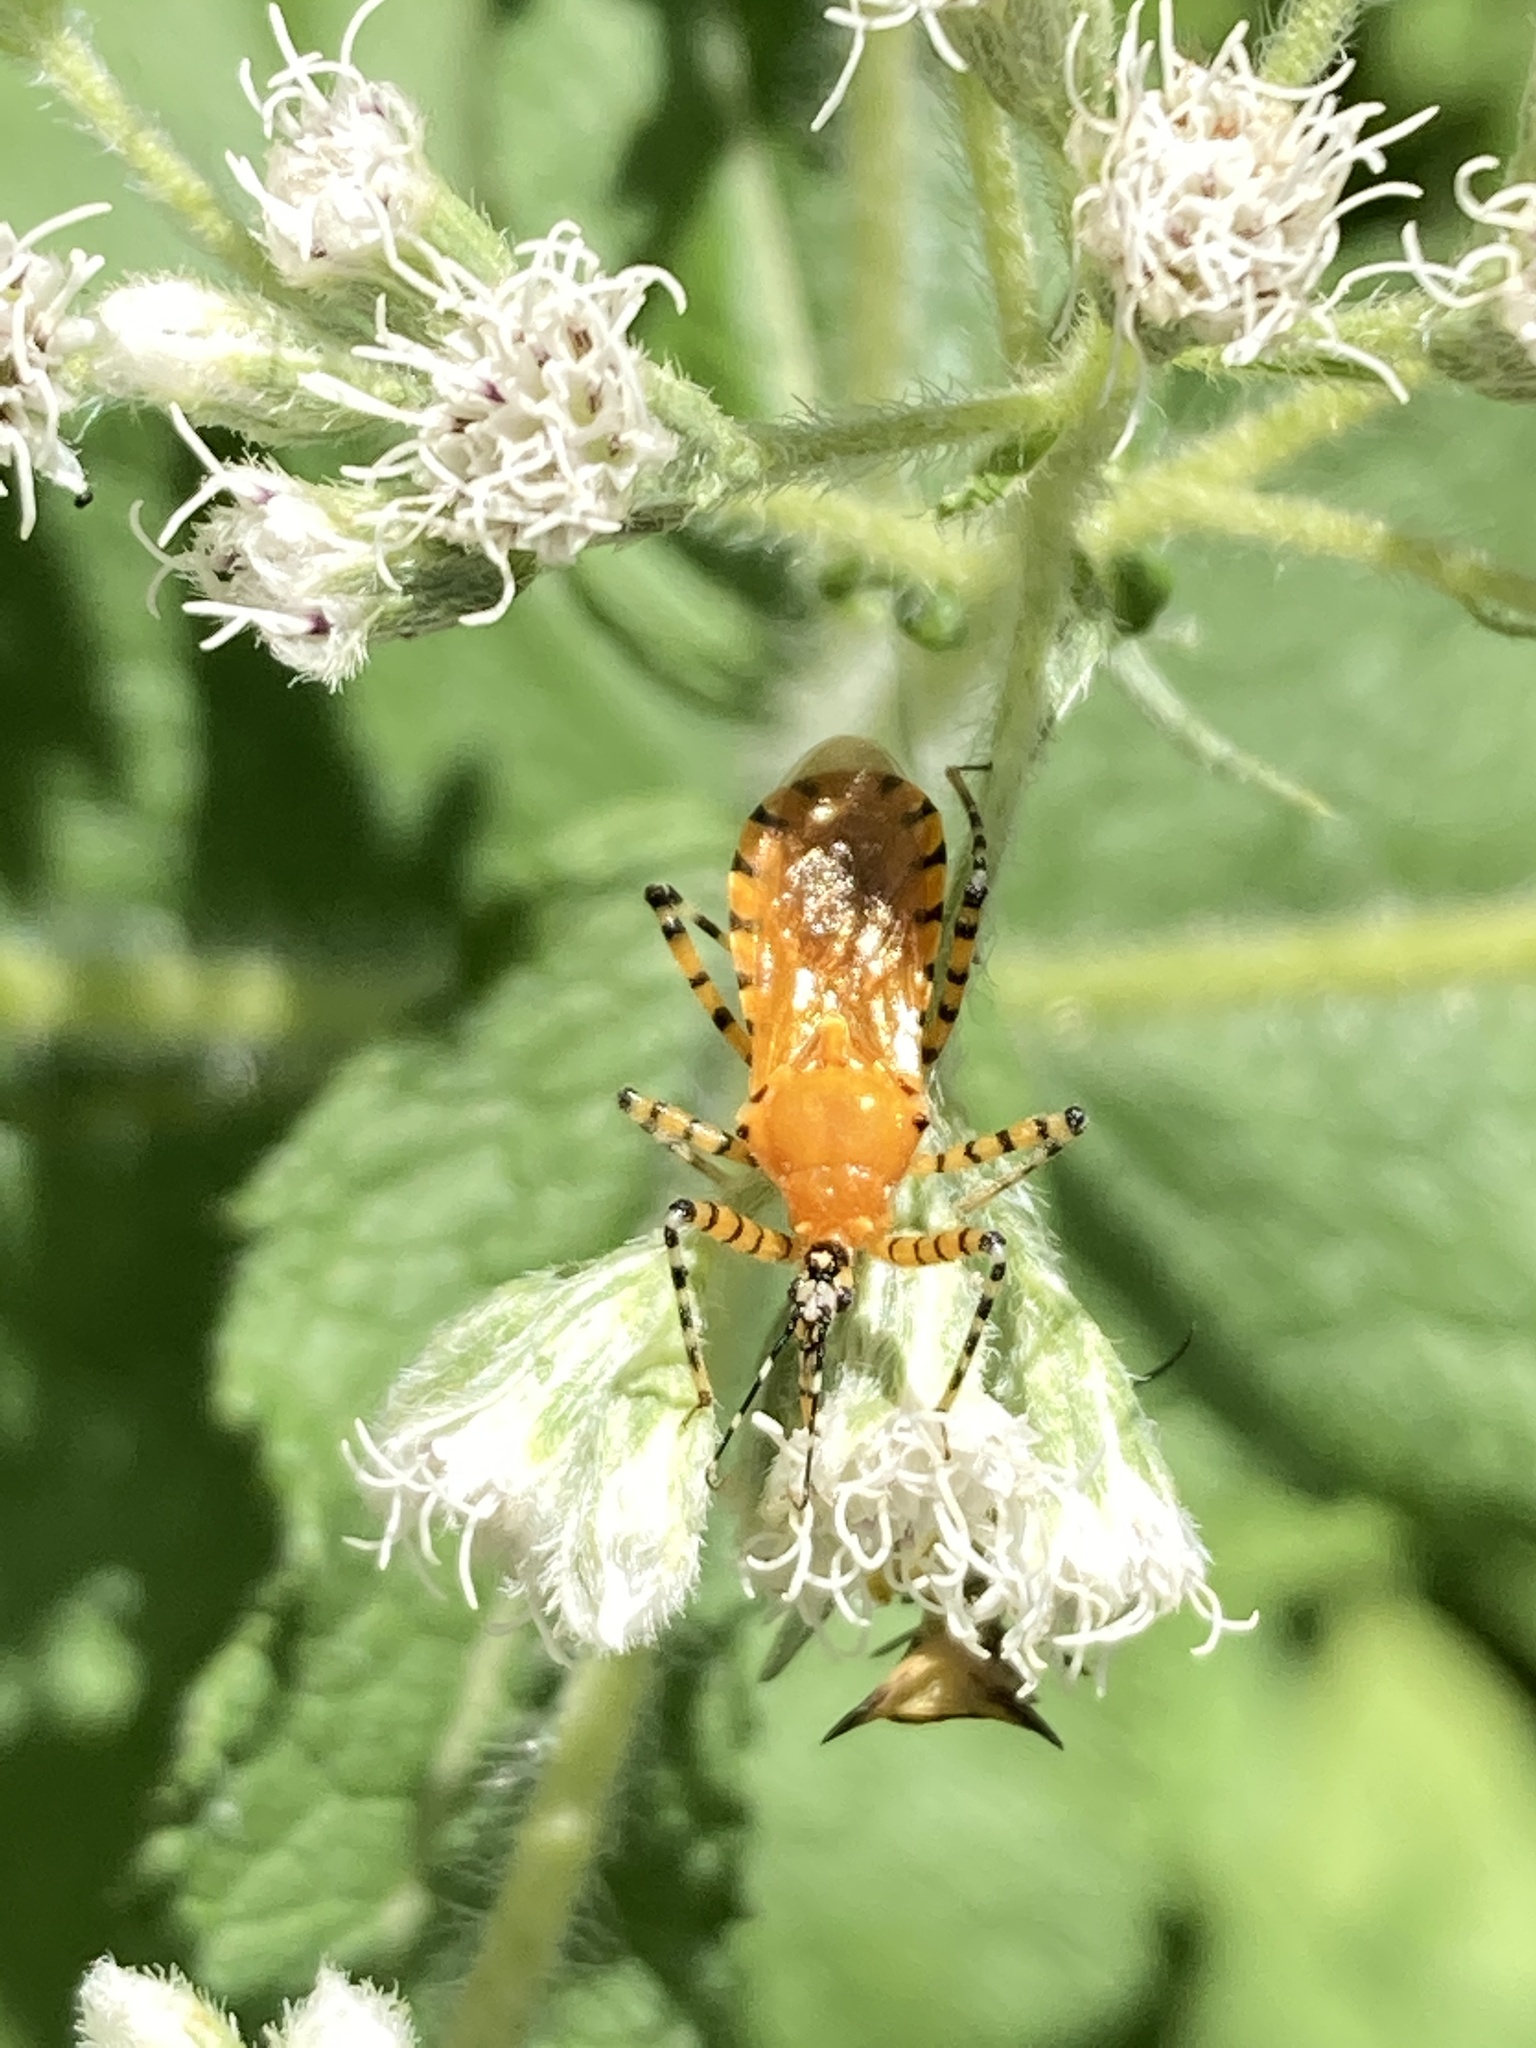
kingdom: Animalia
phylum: Arthropoda
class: Insecta
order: Hemiptera
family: Reduviidae
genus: Pselliopus
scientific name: Pselliopus barberi
